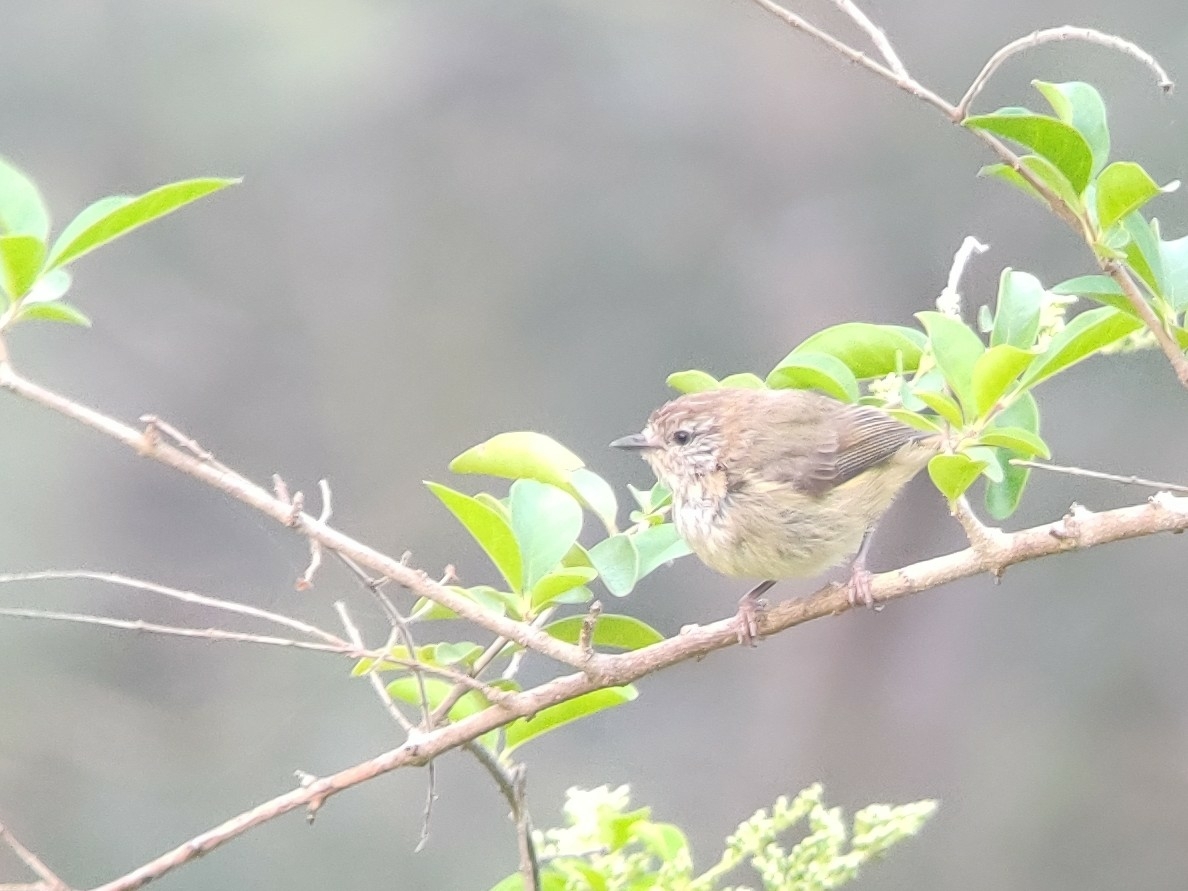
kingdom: Animalia
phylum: Chordata
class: Aves
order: Passeriformes
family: Acanthizidae
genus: Acanthiza
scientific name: Acanthiza lineata
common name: Striated thornbill
